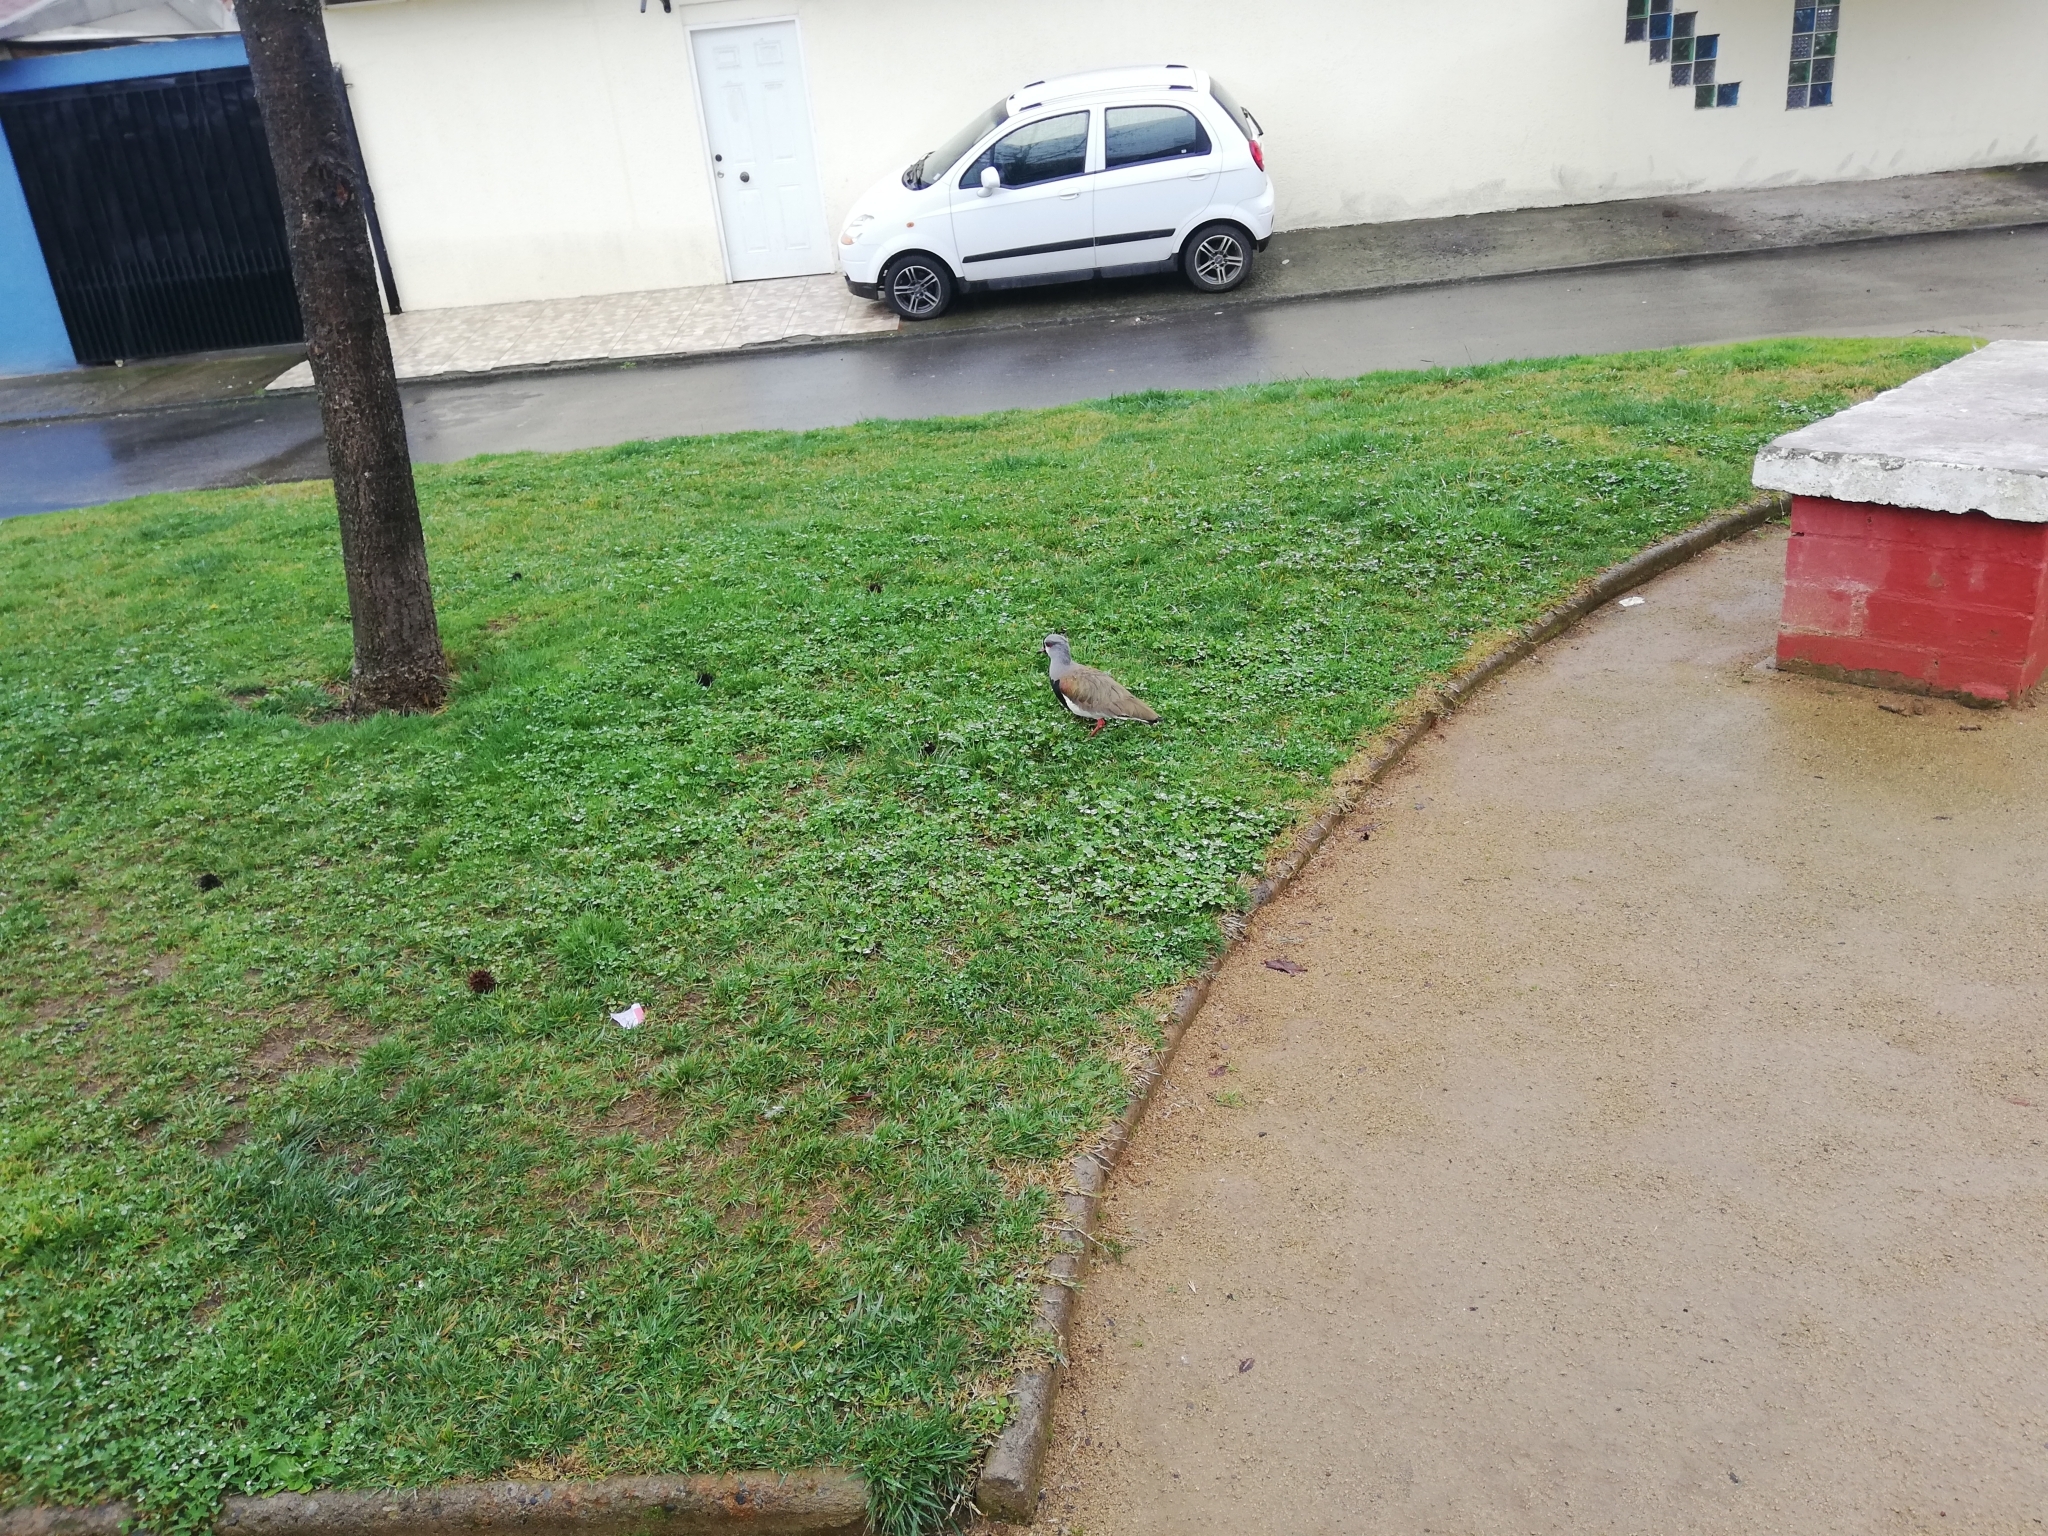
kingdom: Animalia
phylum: Chordata
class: Aves
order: Charadriiformes
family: Charadriidae
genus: Vanellus
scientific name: Vanellus chilensis
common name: Southern lapwing
